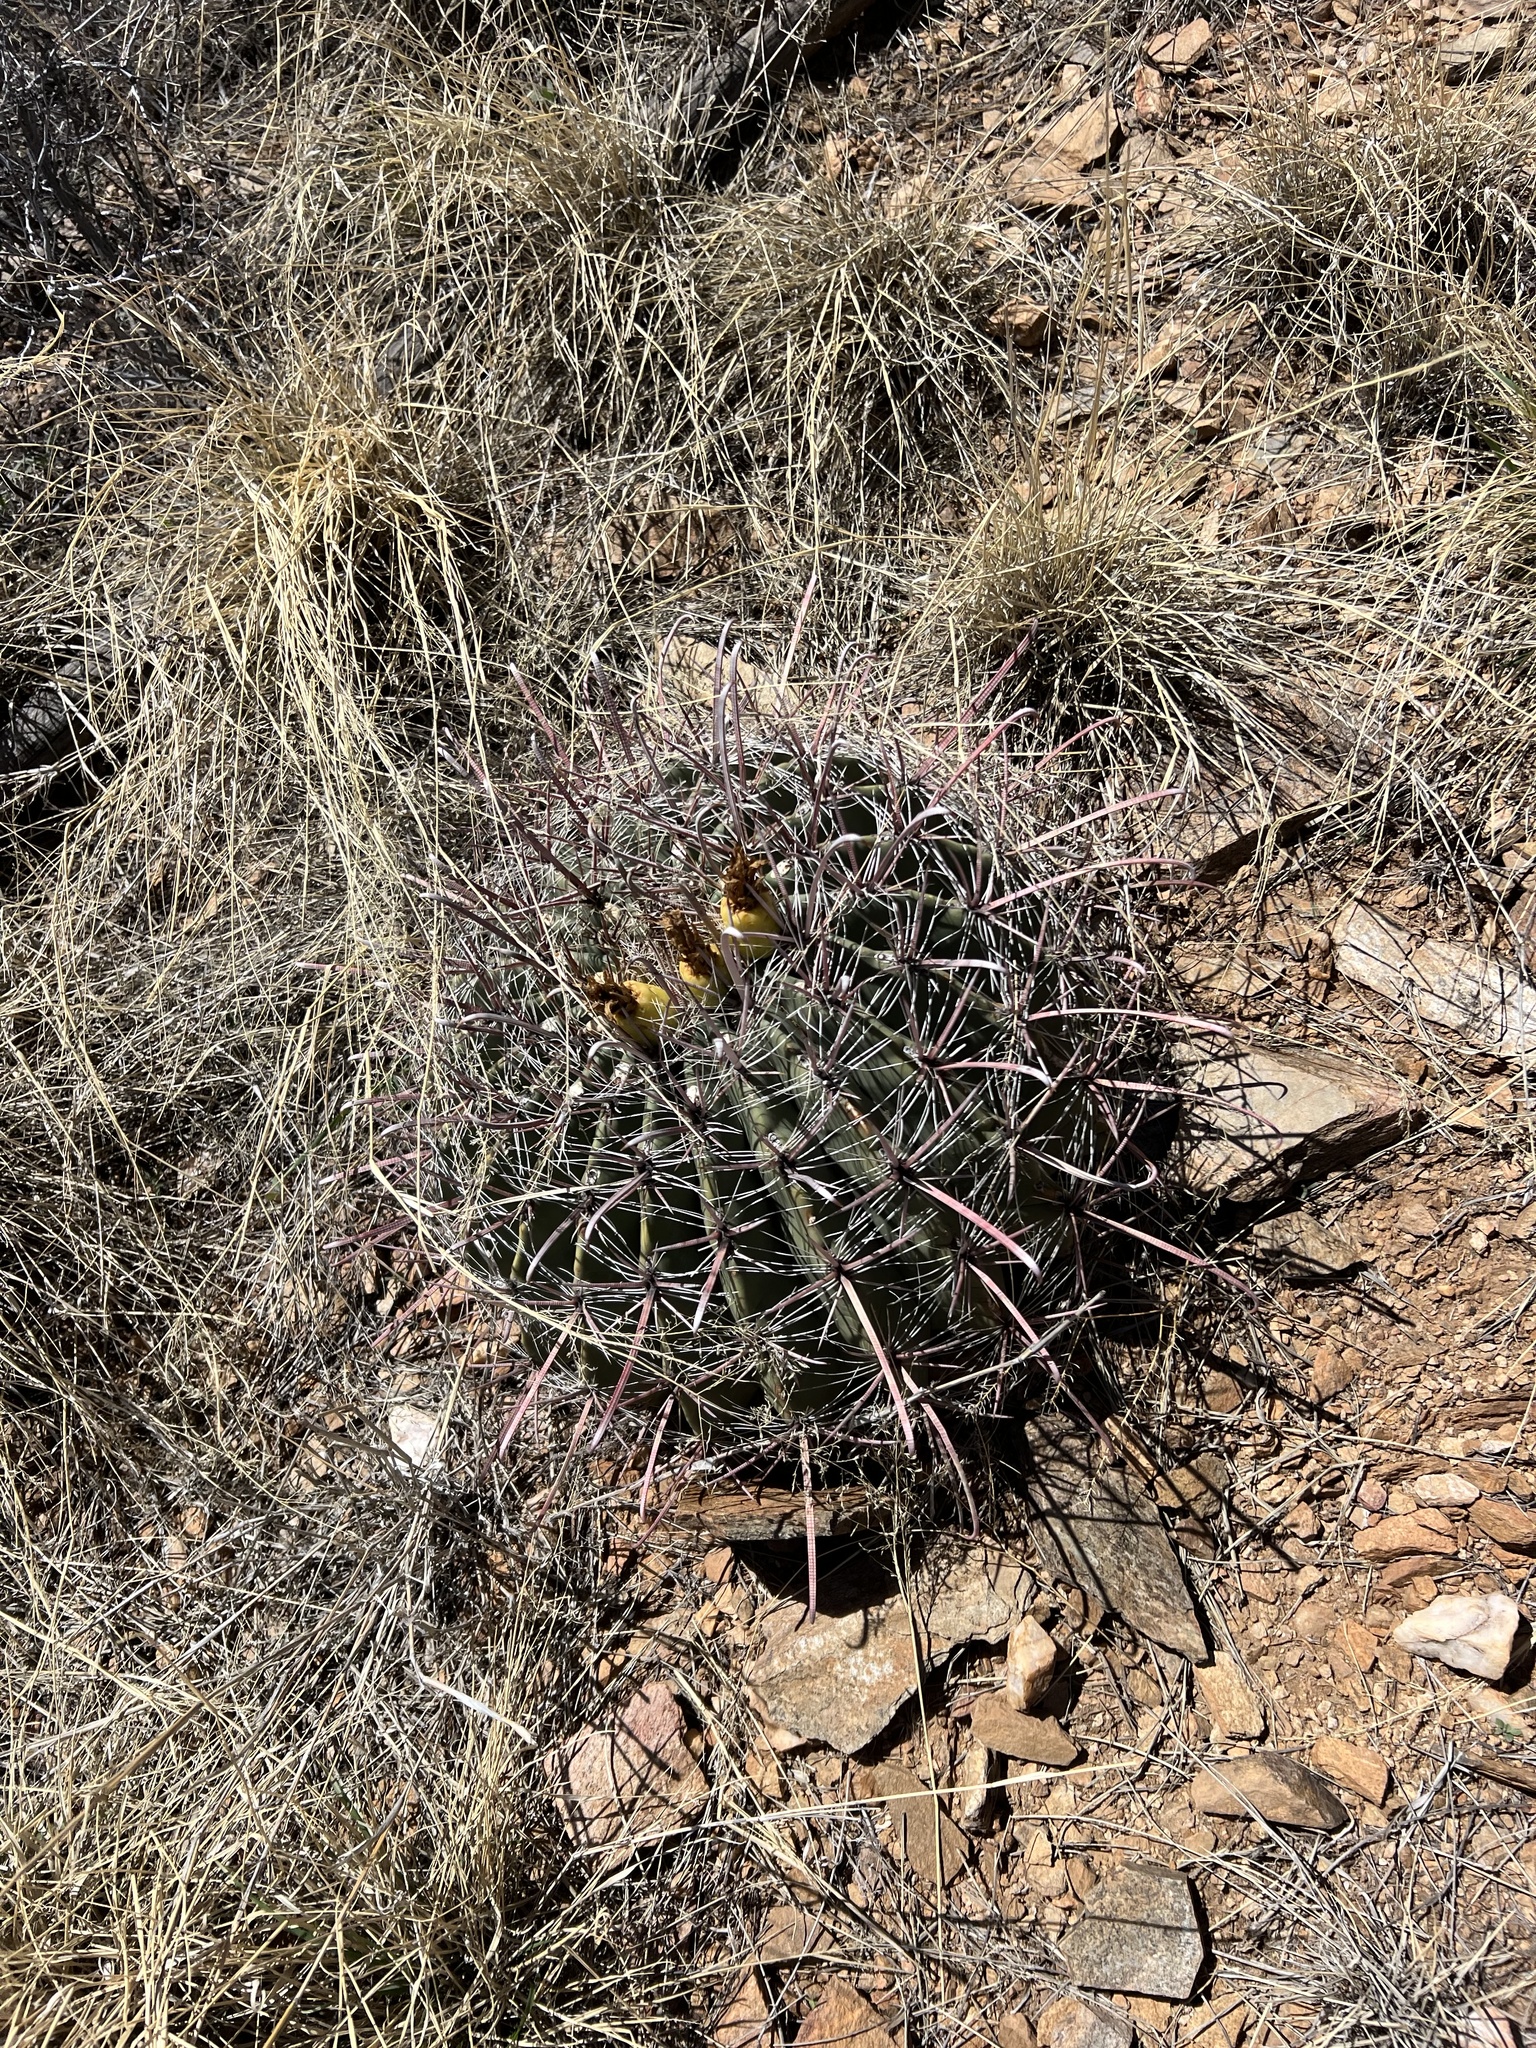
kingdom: Plantae
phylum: Tracheophyta
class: Magnoliopsida
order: Caryophyllales
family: Cactaceae
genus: Ferocactus
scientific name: Ferocactus wislizeni
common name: Candy barrel cactus
